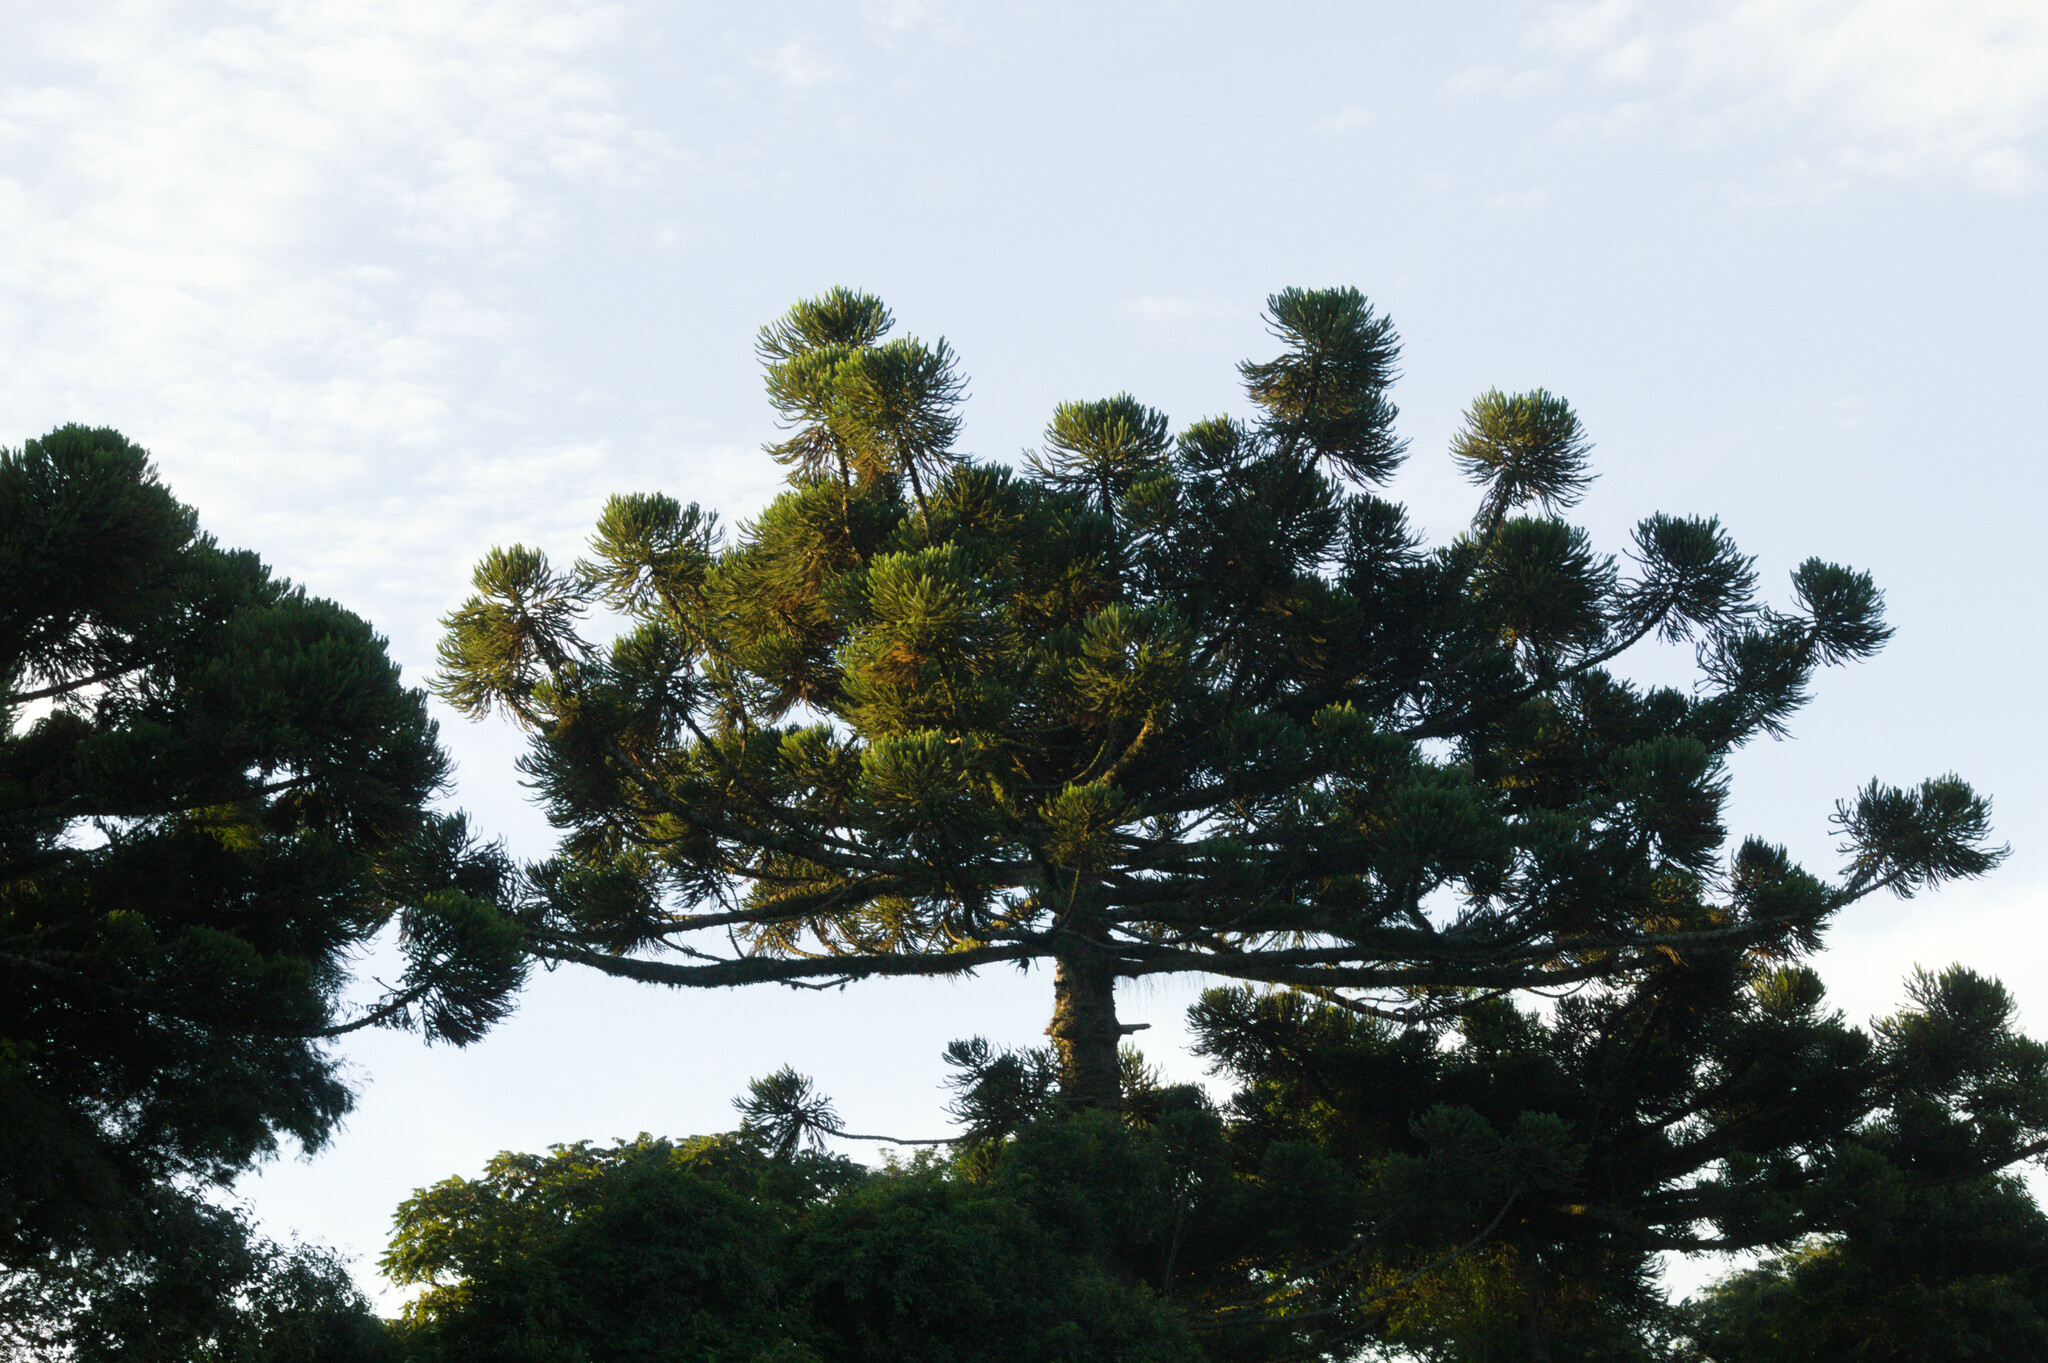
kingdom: Plantae
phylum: Tracheophyta
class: Pinopsida
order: Pinales
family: Araucariaceae
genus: Araucaria
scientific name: Araucaria angustifolia
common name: Candelabra tree
